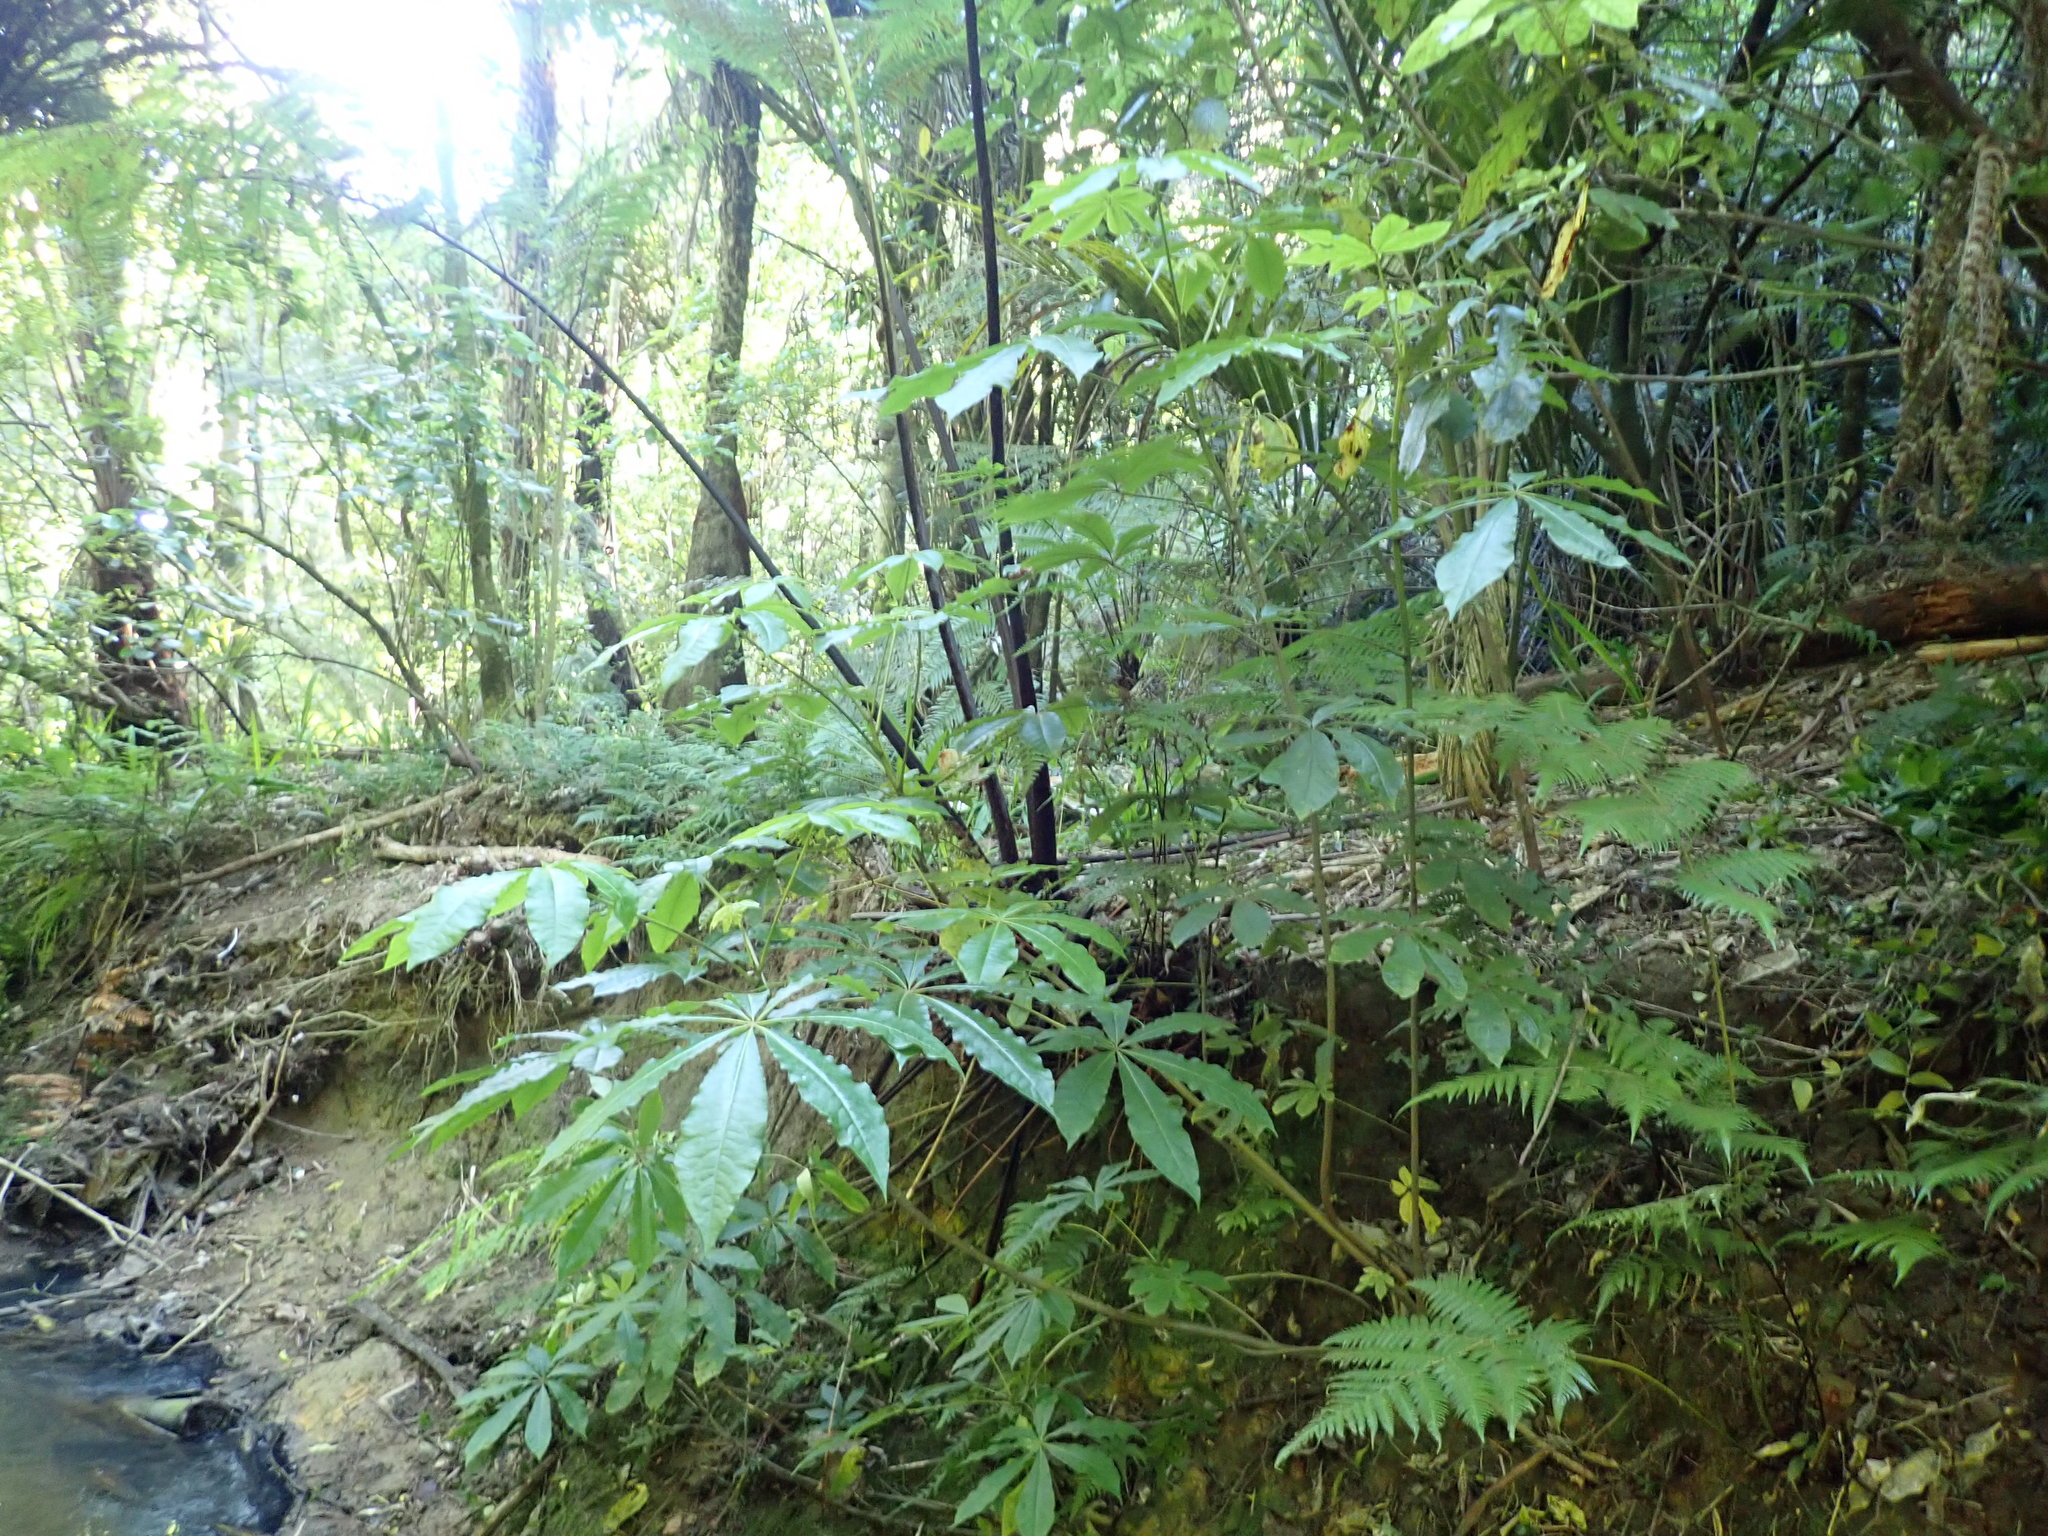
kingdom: Plantae
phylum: Tracheophyta
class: Magnoliopsida
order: Apiales
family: Araliaceae
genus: Schefflera
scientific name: Schefflera digitata
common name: Pate
